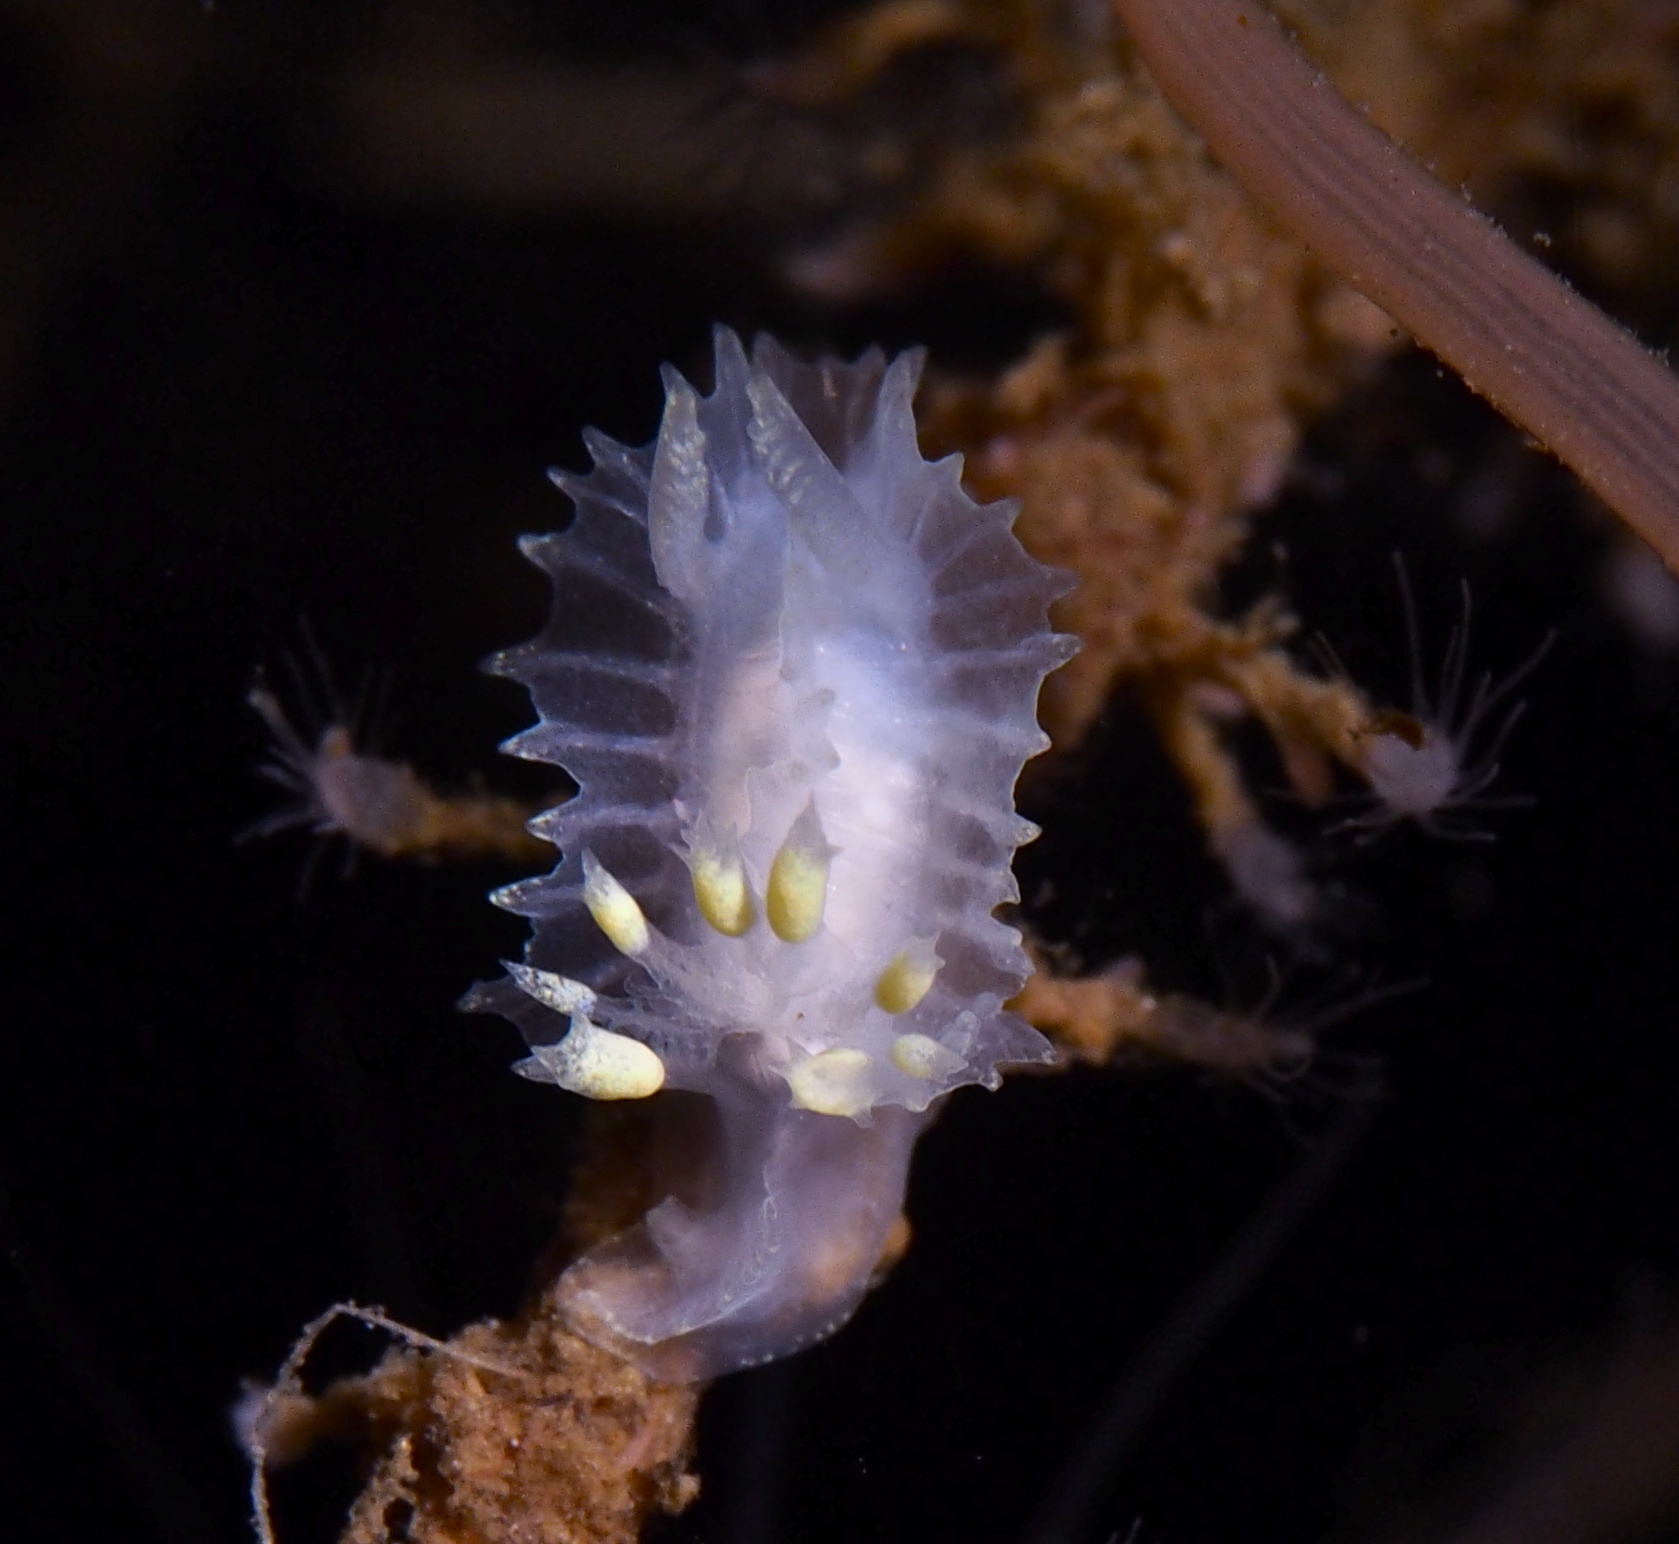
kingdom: Animalia
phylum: Mollusca
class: Gastropoda
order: Nudibranchia
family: Goniodorididae
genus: Lophodoris
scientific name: Lophodoris danielsseni
